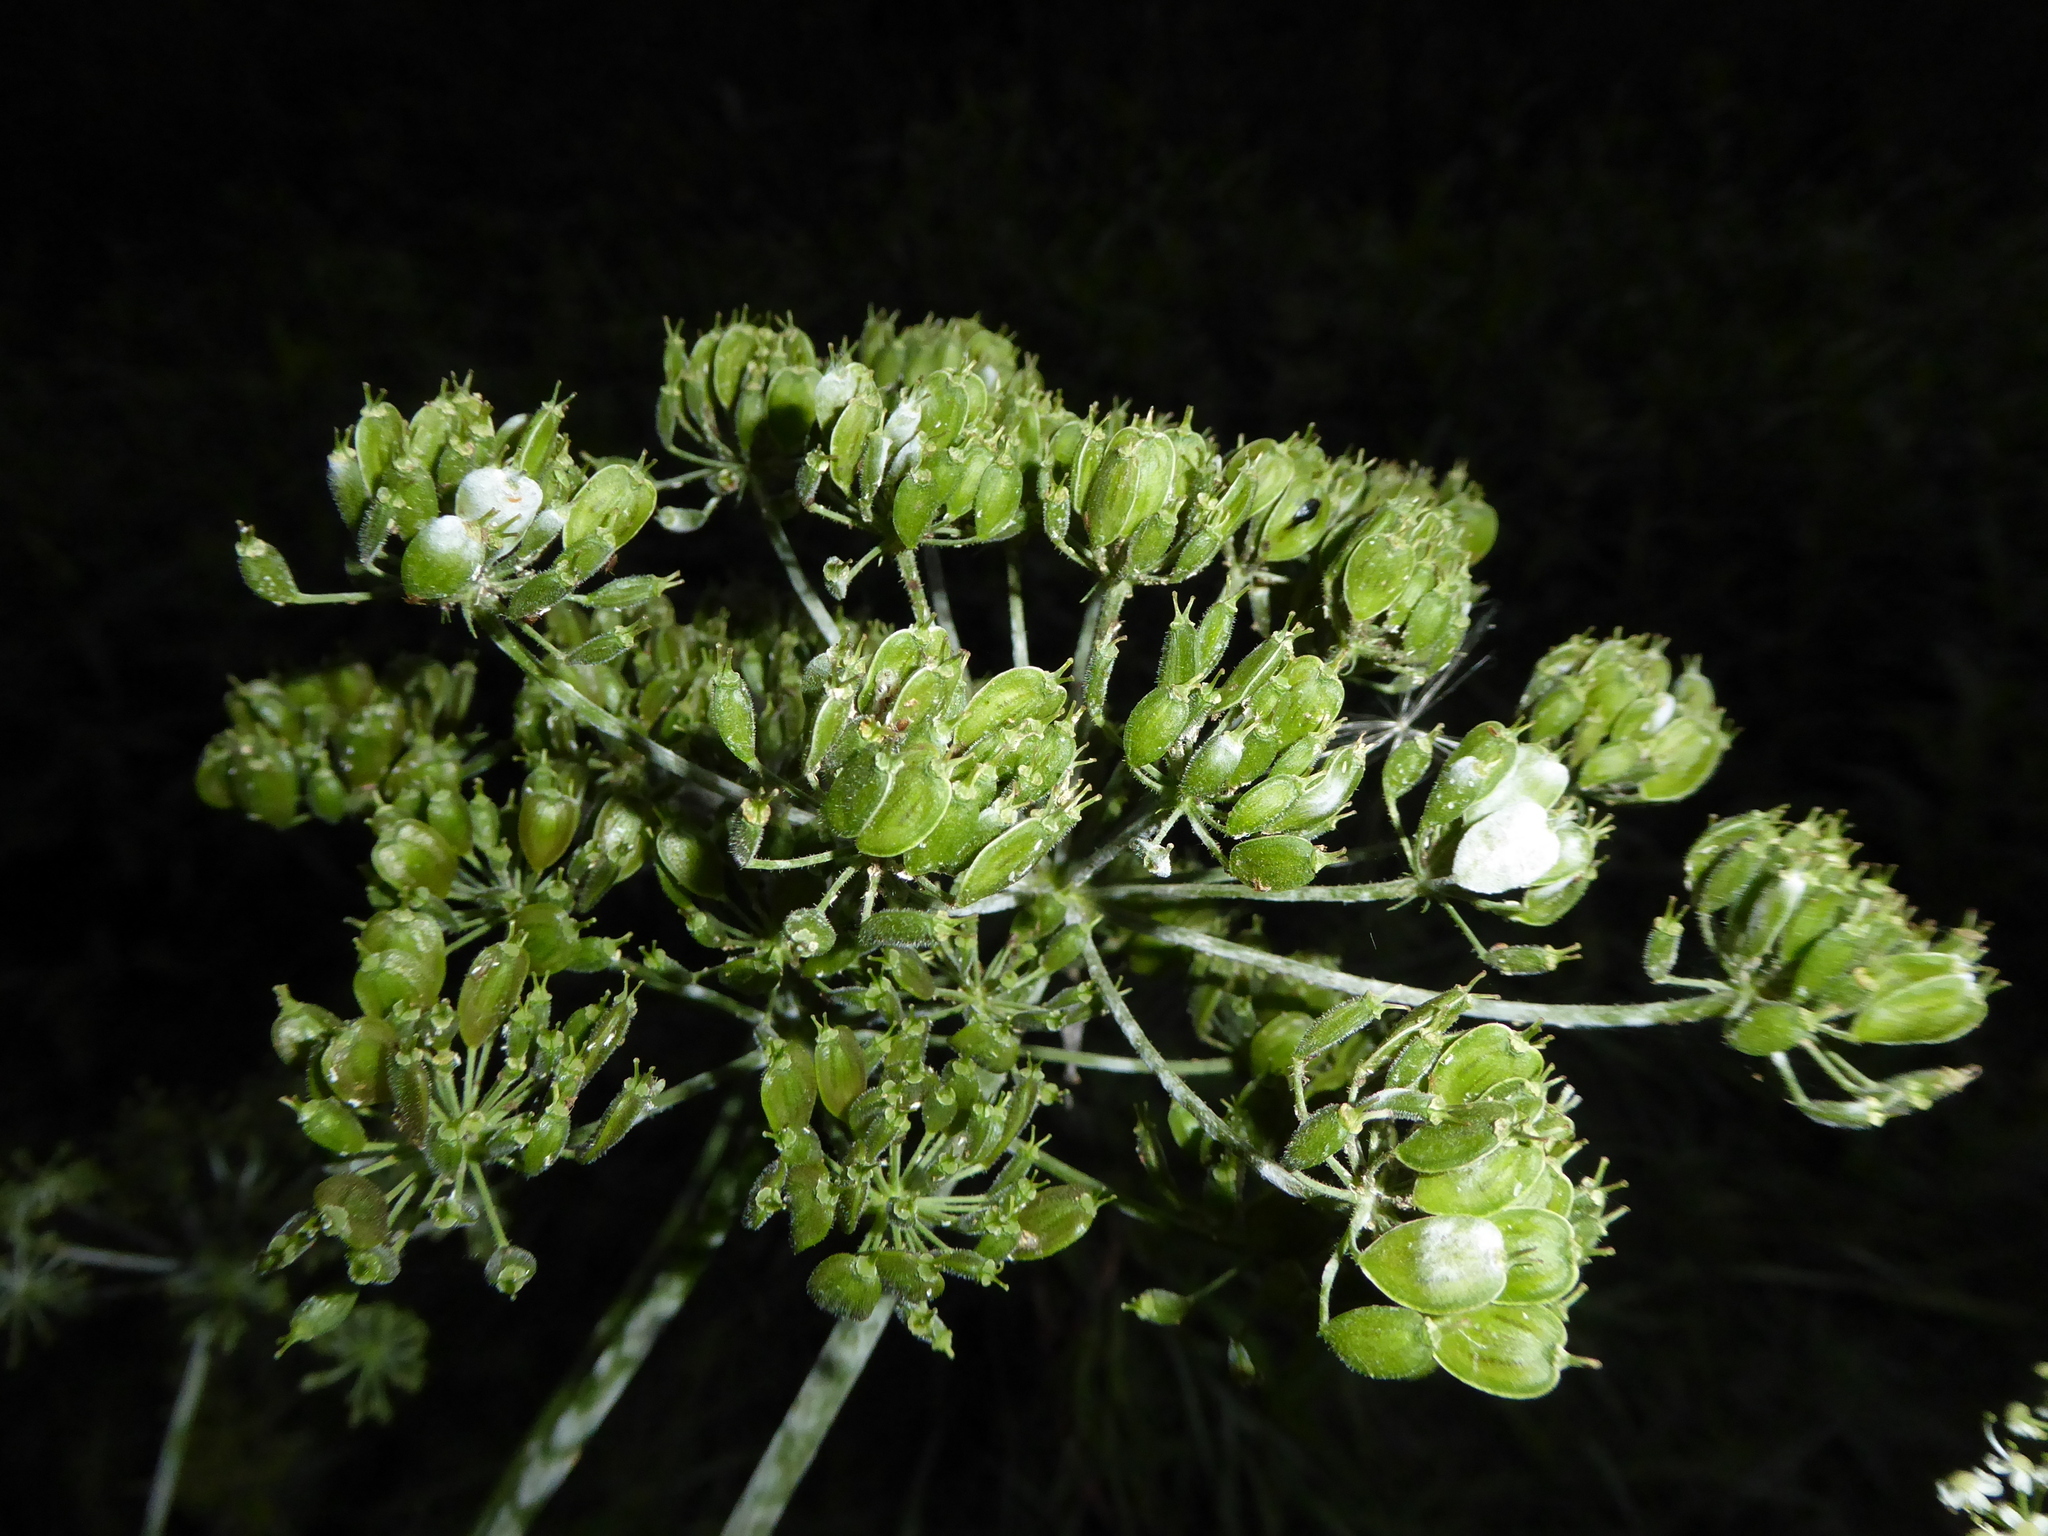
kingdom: Fungi
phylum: Ascomycota
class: Leotiomycetes
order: Helotiales
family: Erysiphaceae
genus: Erysiphe
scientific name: Erysiphe heraclei
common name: Umbellifer mildew
